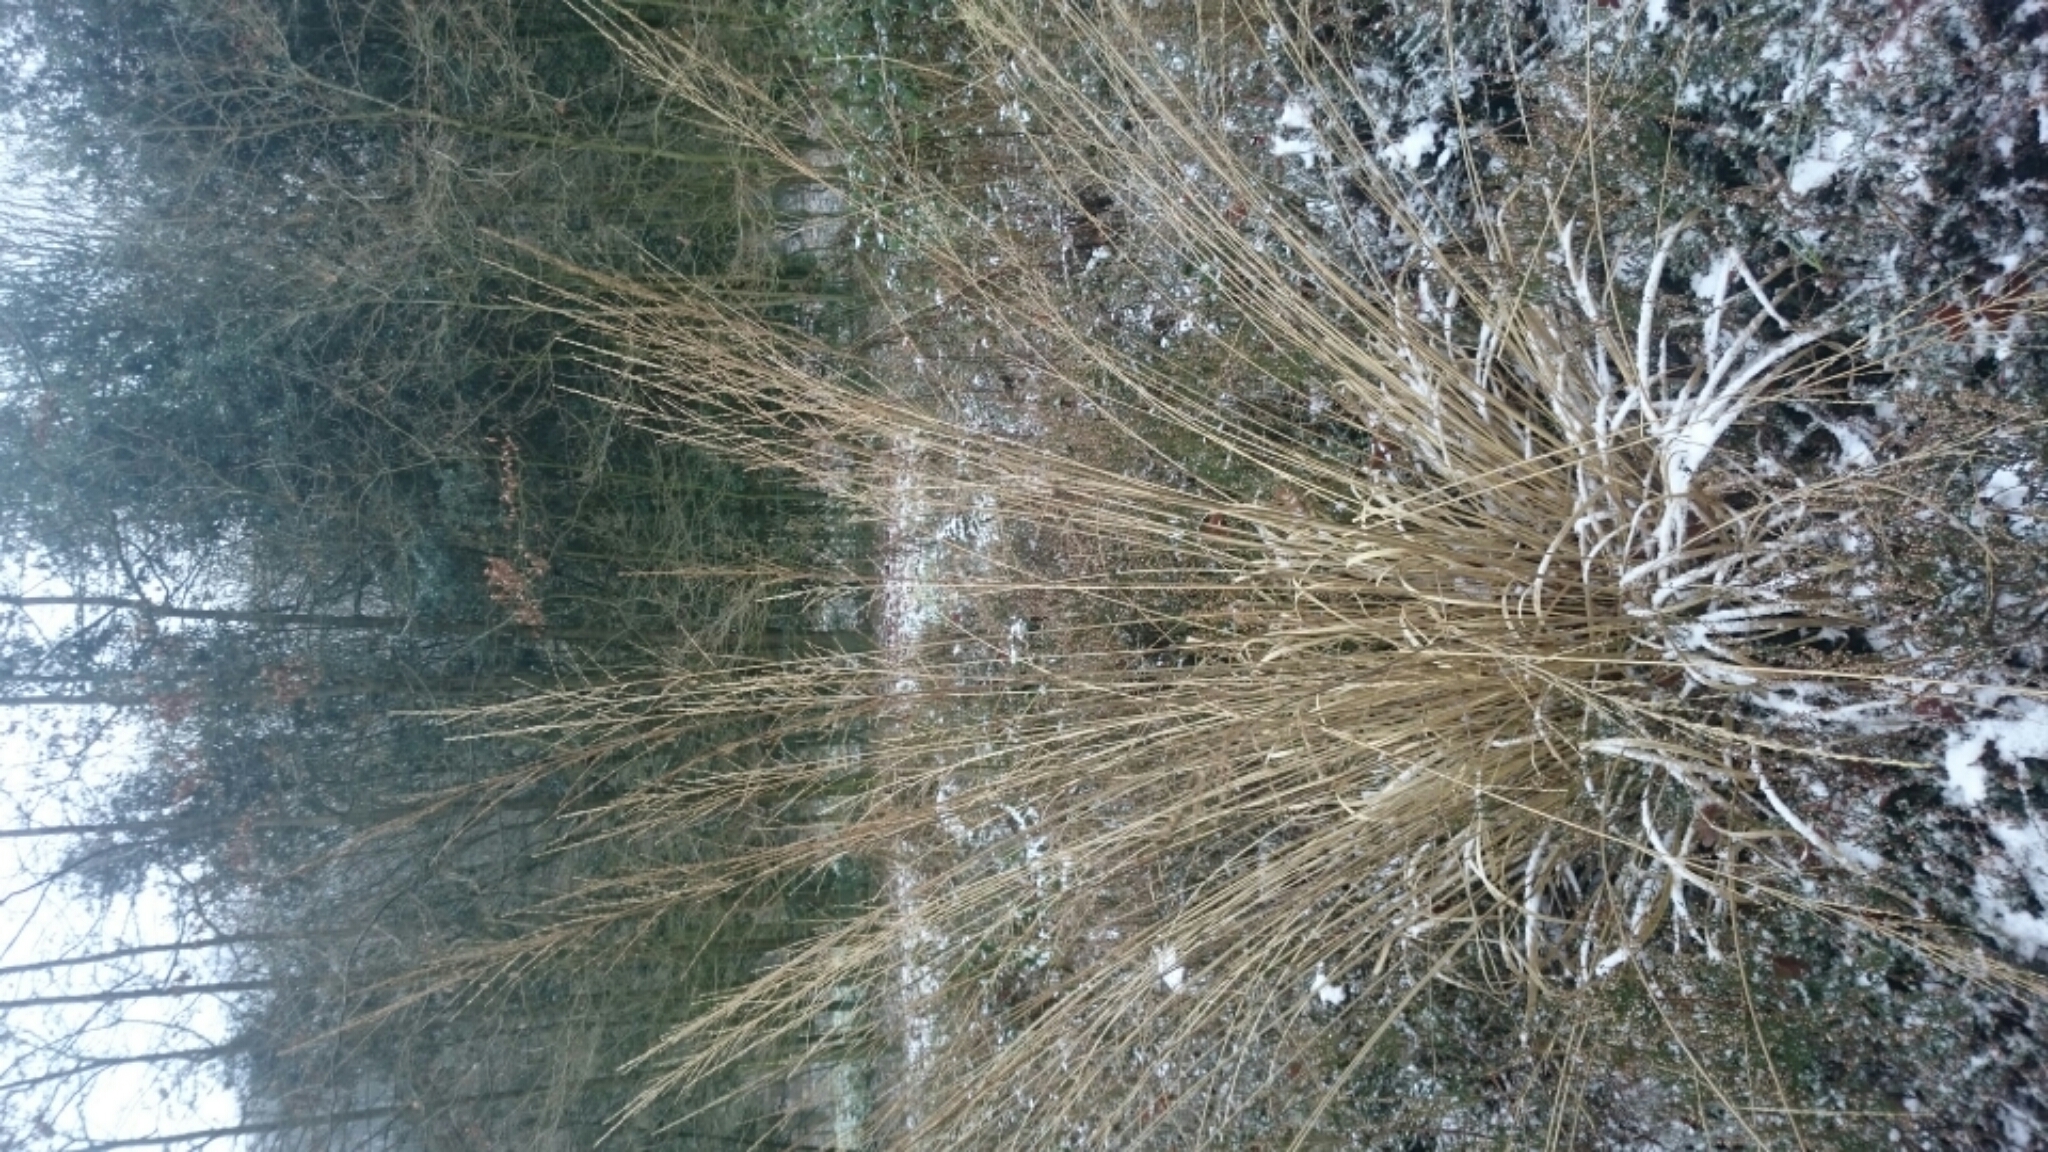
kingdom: Plantae
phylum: Tracheophyta
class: Liliopsida
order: Poales
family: Poaceae
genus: Molinia
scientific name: Molinia caerulea
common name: Purple moor-grass
